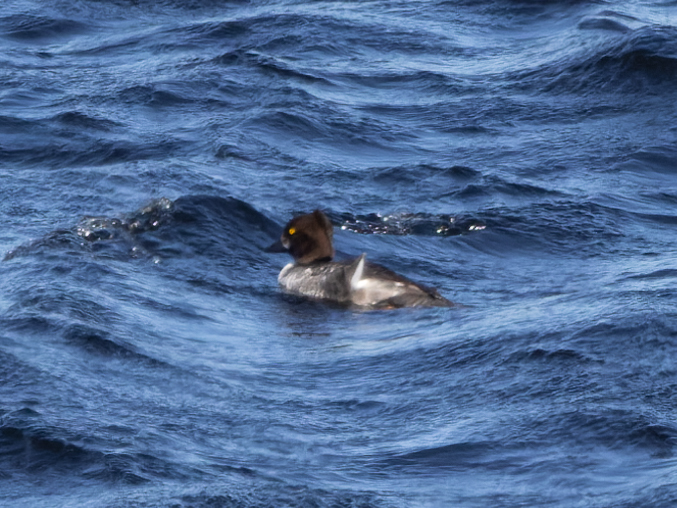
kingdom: Animalia
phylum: Chordata
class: Aves
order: Anseriformes
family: Anatidae
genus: Bucephala
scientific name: Bucephala clangula
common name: Common goldeneye
